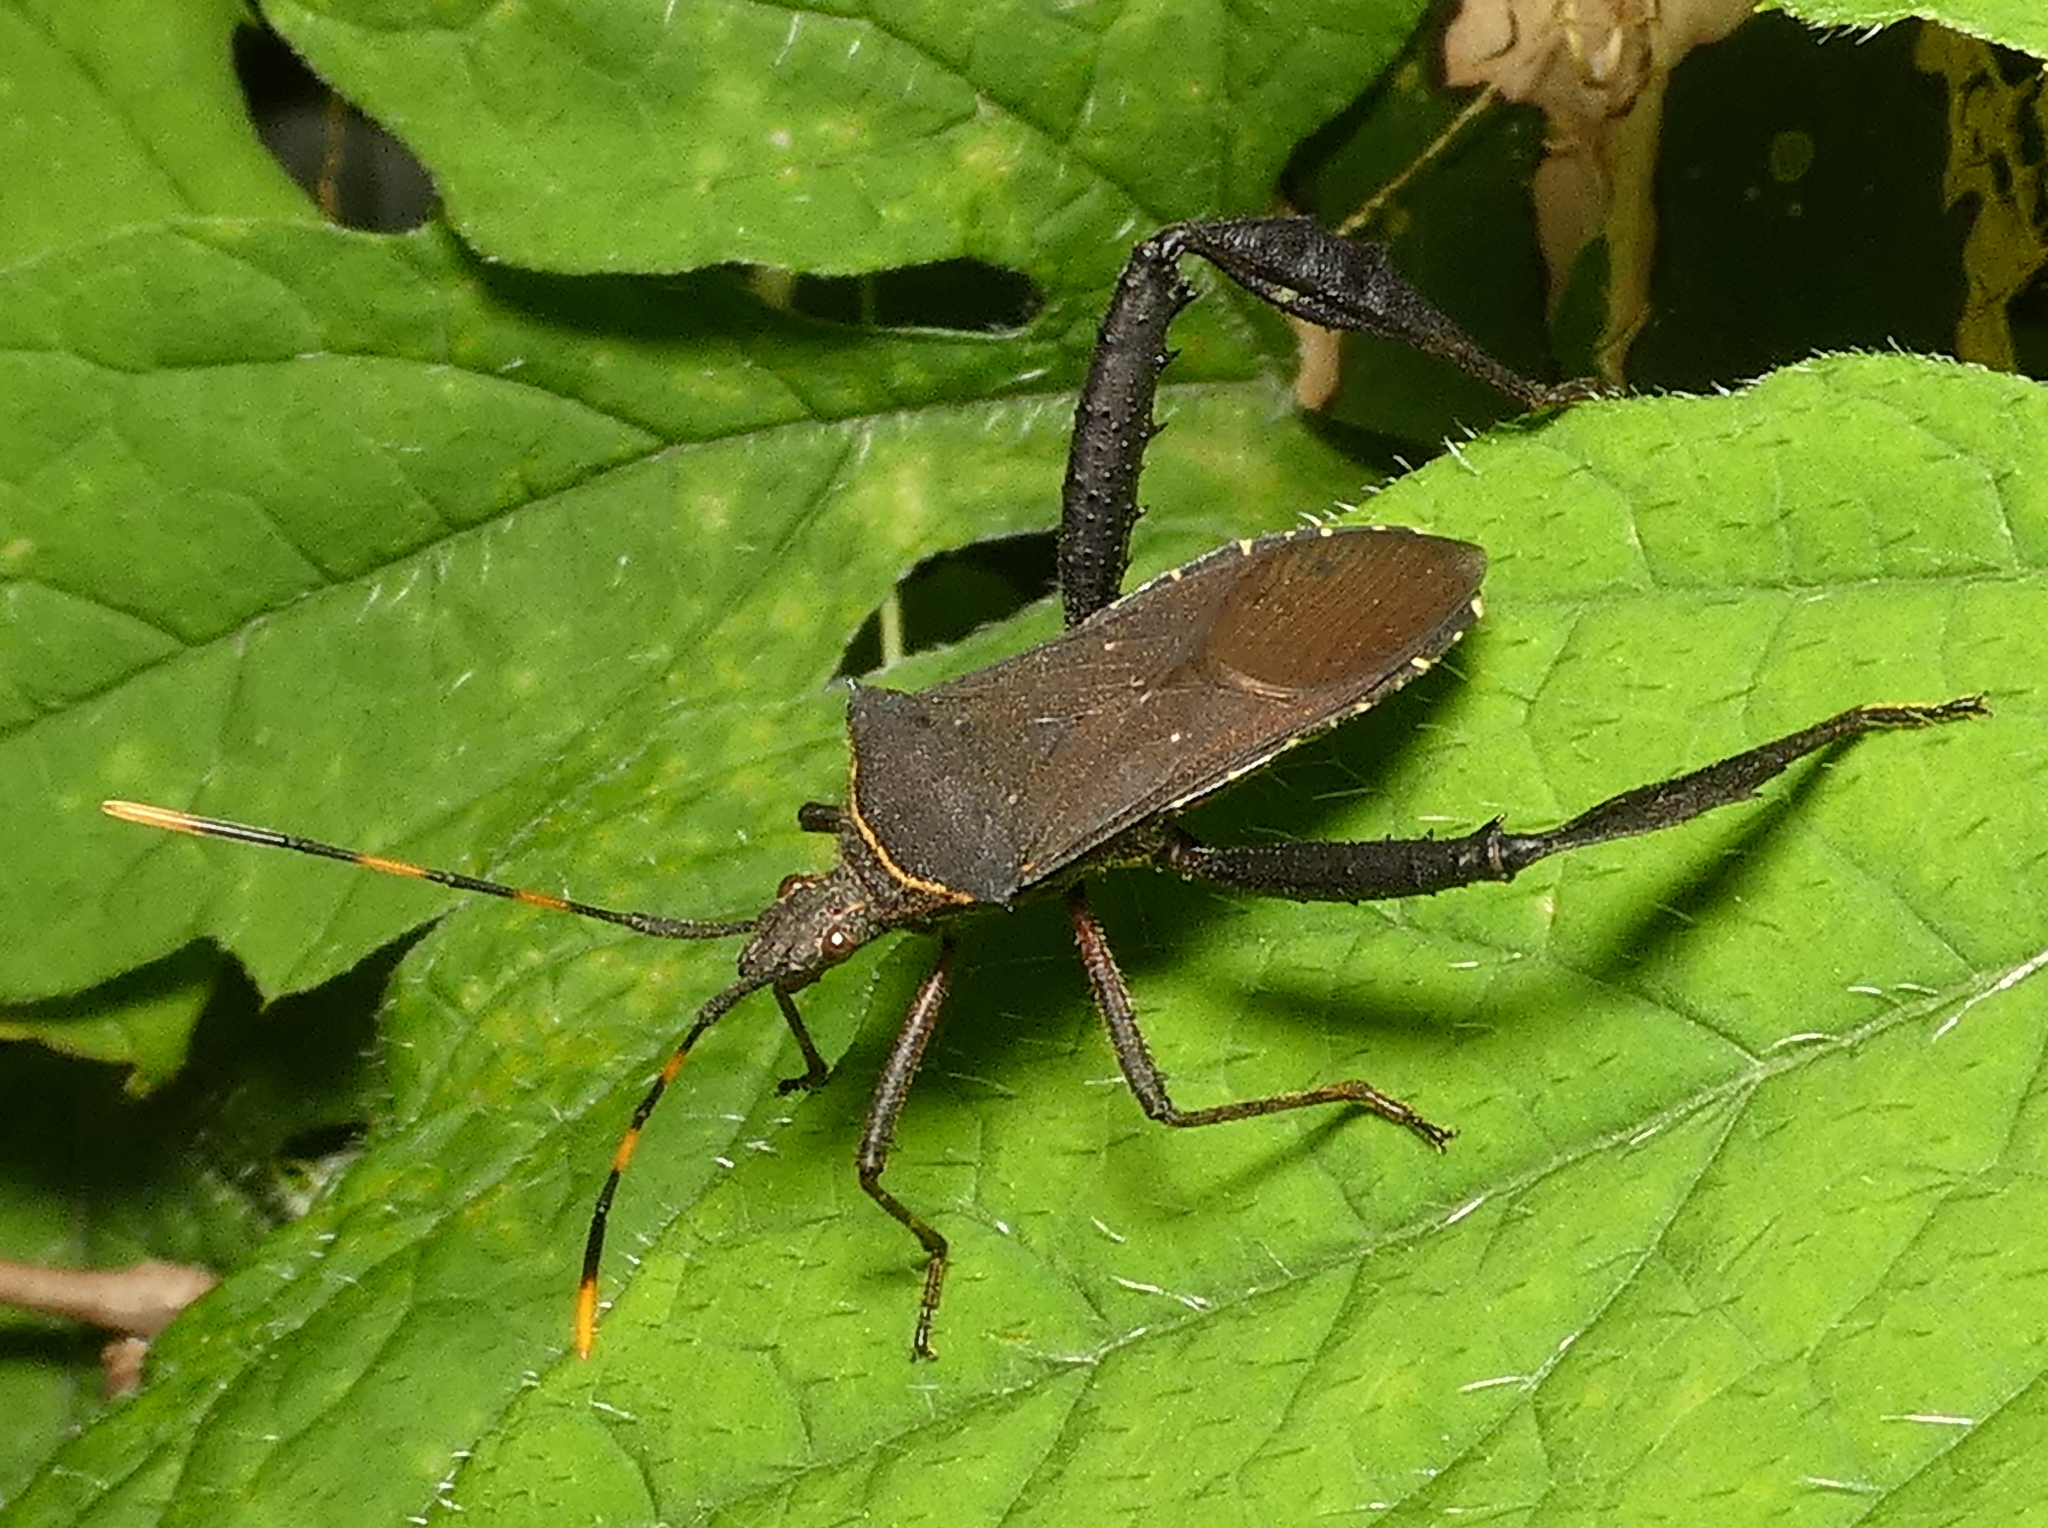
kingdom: Animalia
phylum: Arthropoda
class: Insecta
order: Hemiptera
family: Coreidae
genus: Leptoglossus
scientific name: Leptoglossus gonagra
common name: Citron bug
